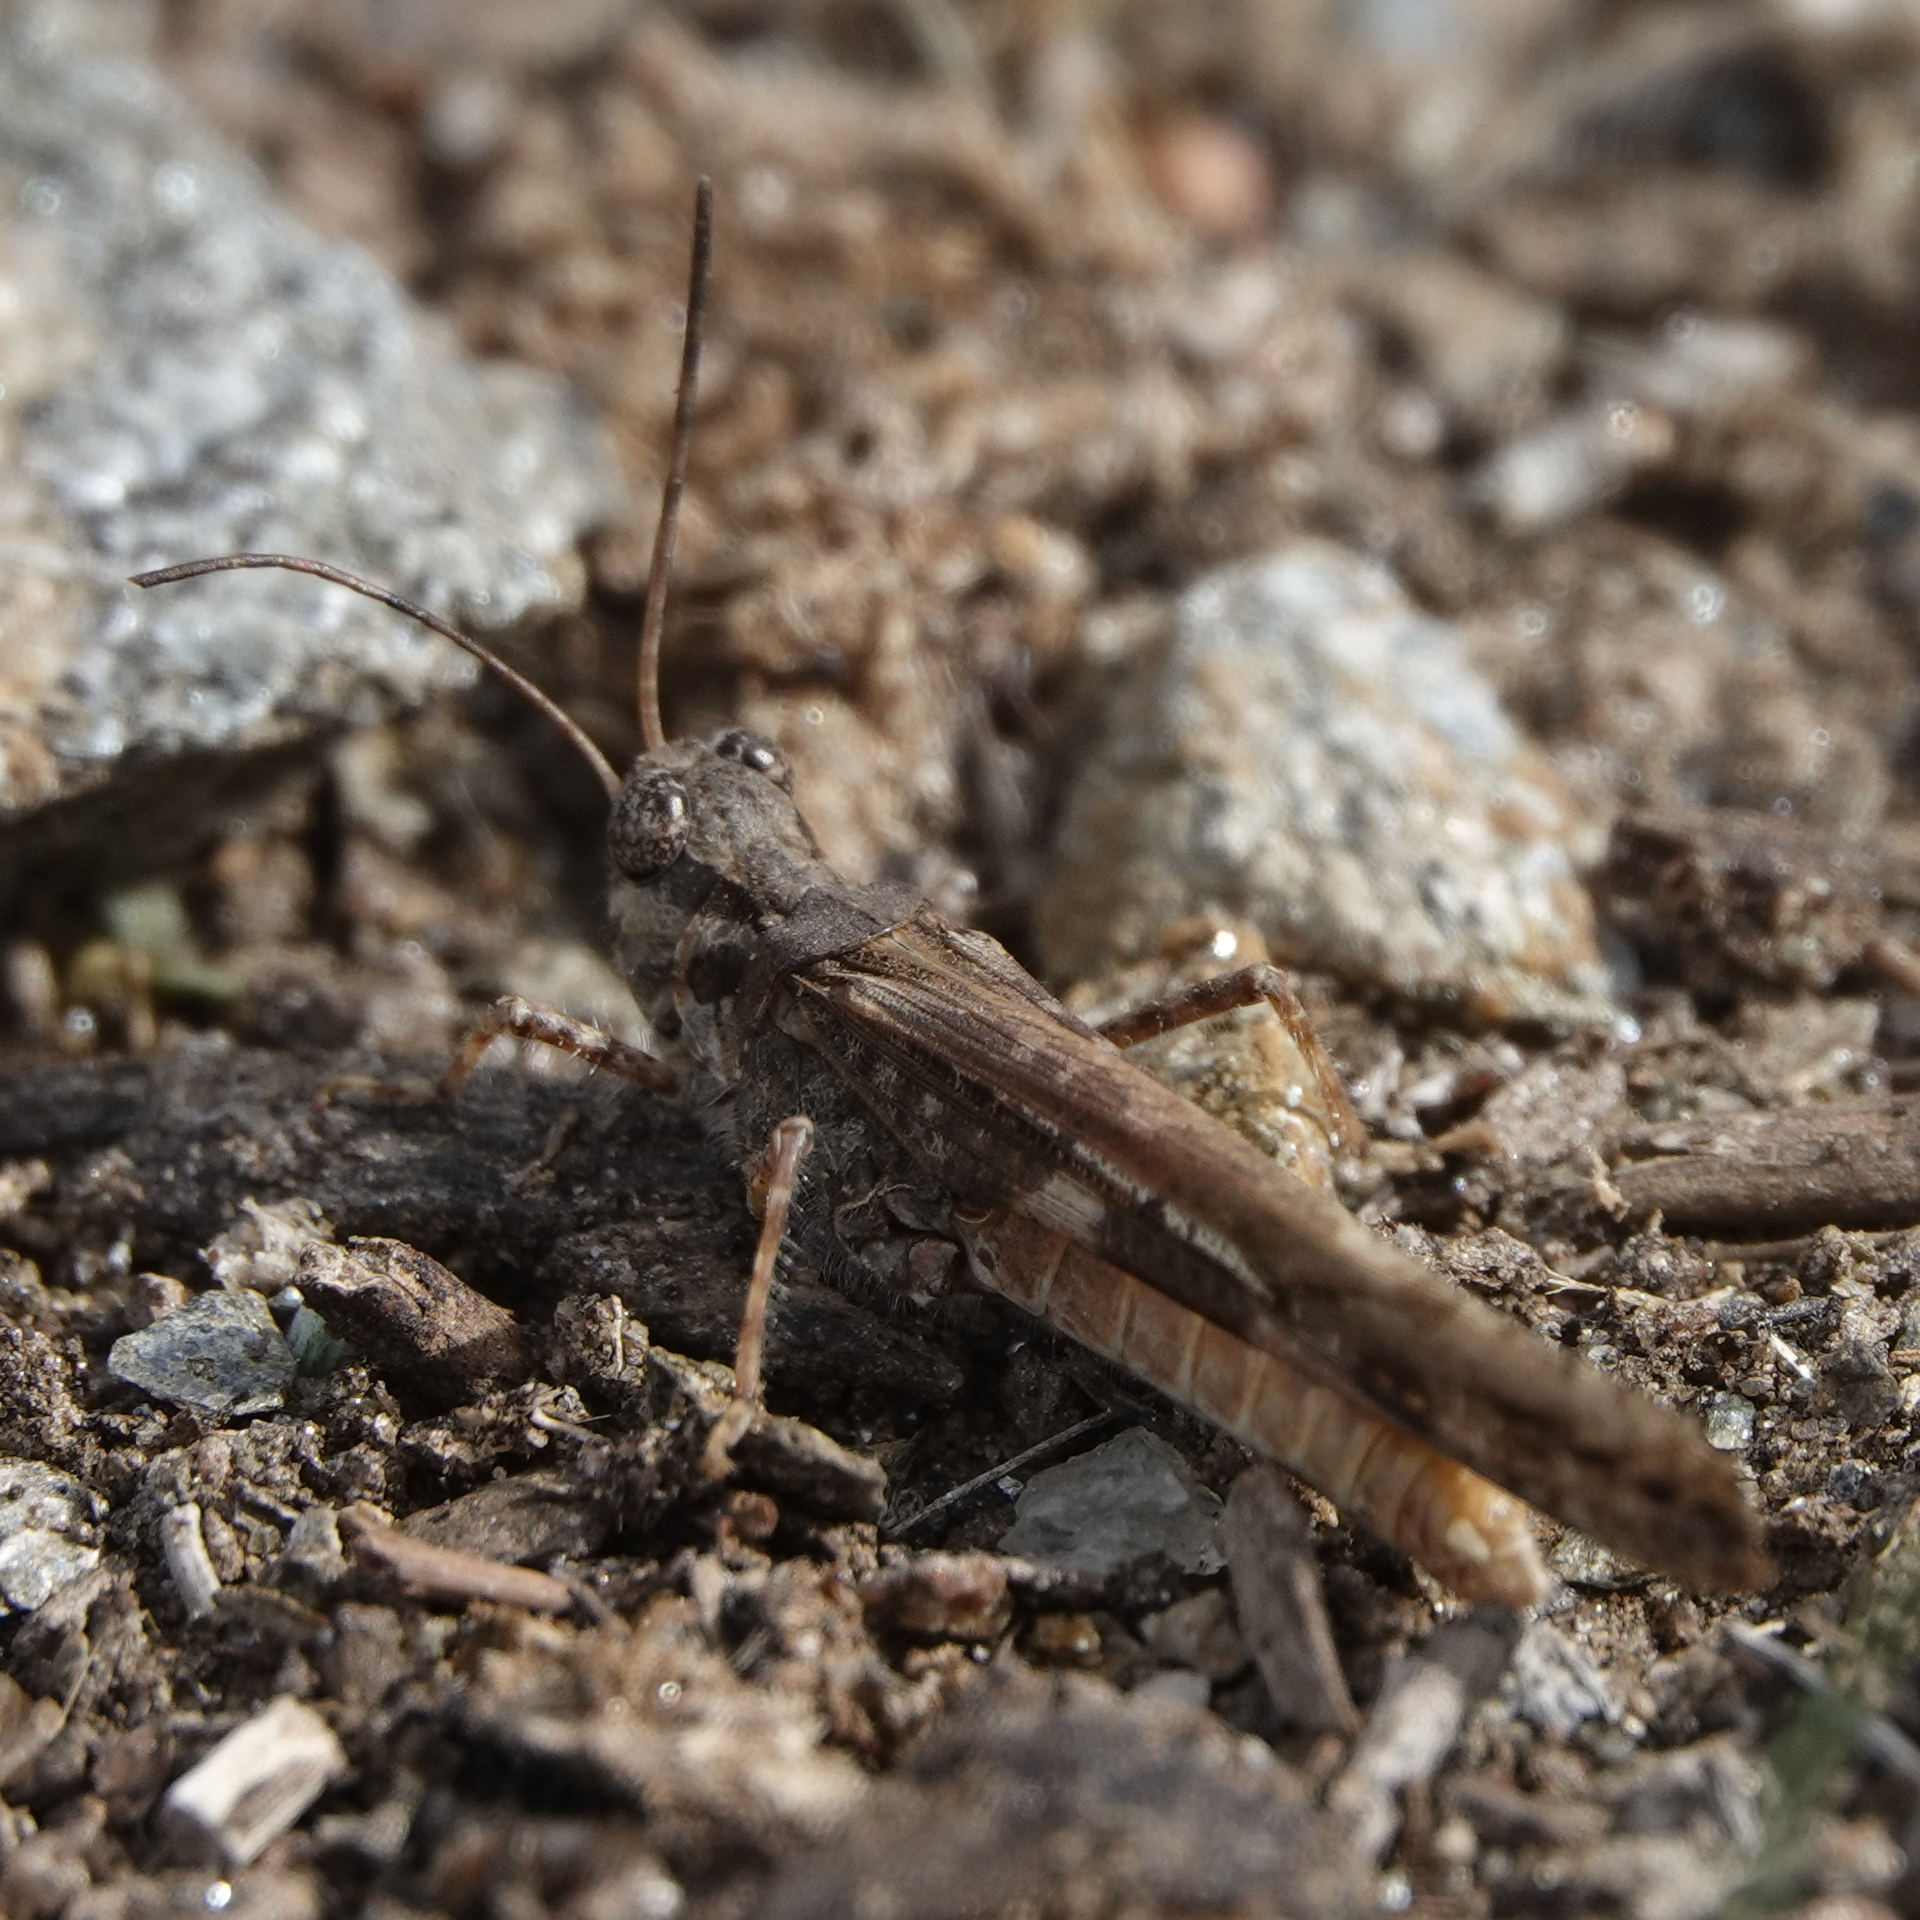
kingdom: Animalia
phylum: Arthropoda
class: Insecta
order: Orthoptera
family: Acrididae
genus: Acrotylus
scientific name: Acrotylus
